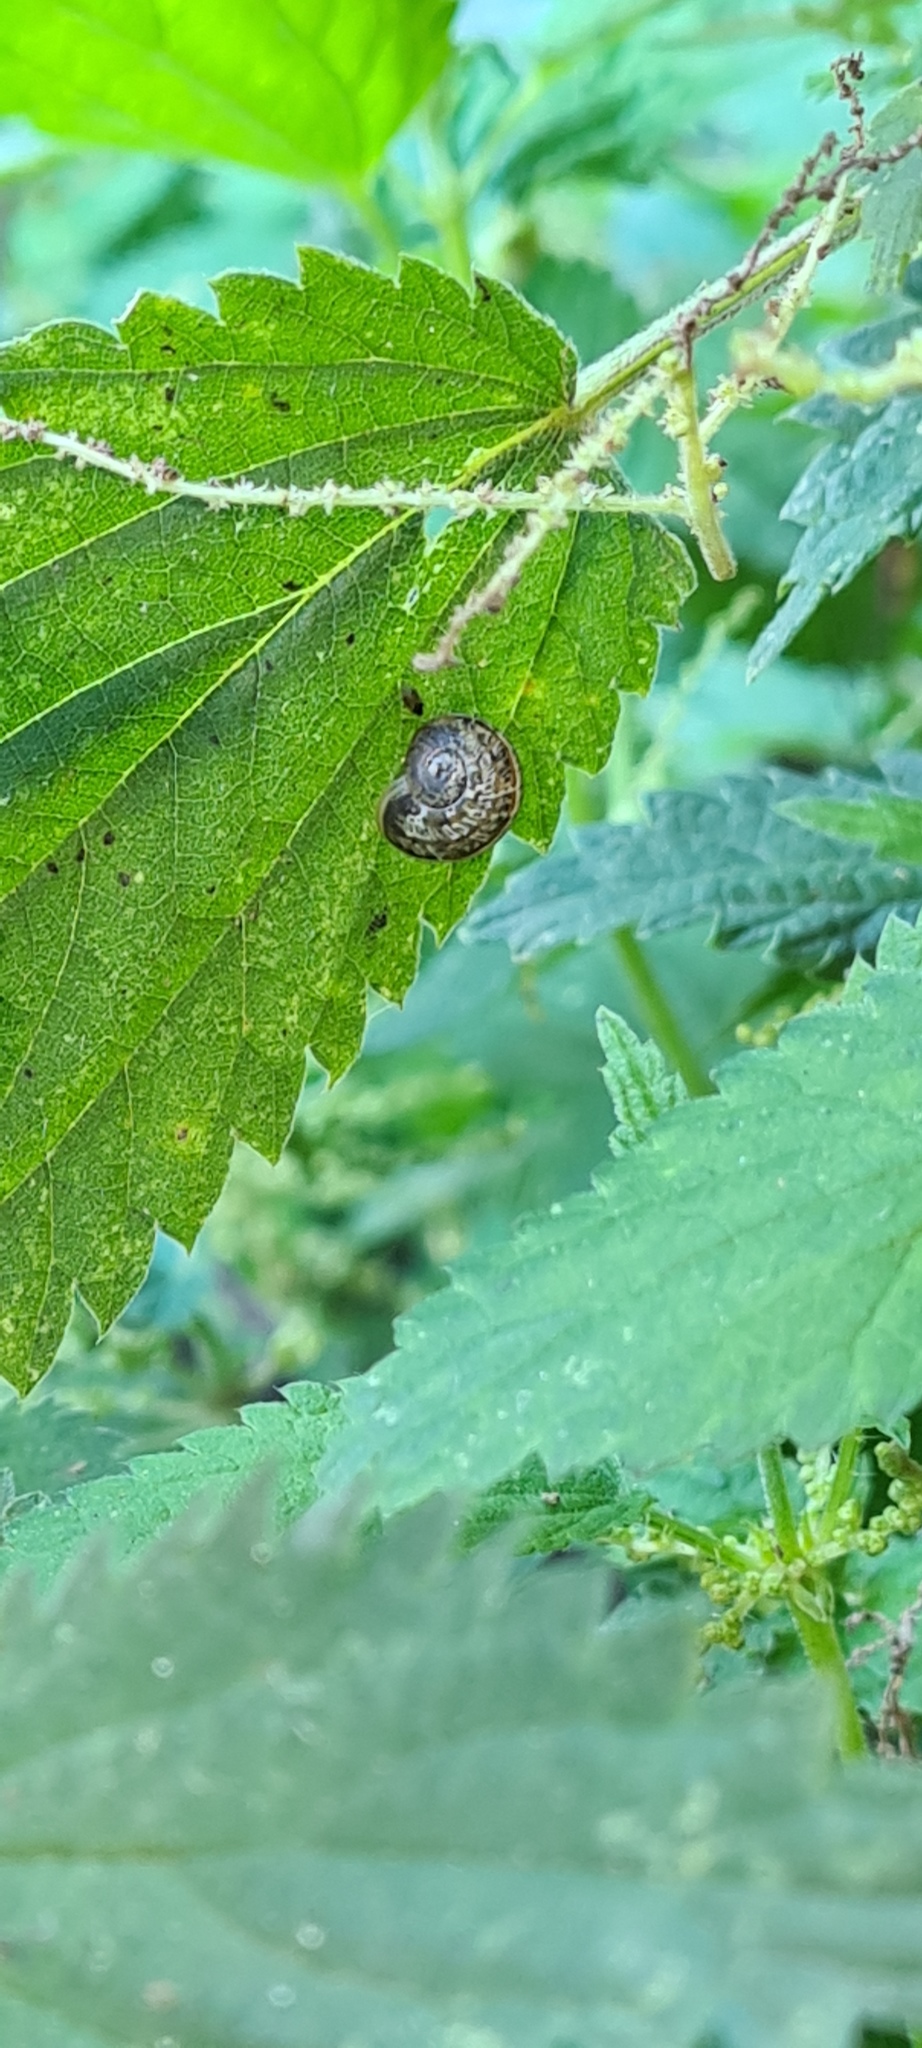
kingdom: Animalia
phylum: Mollusca
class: Gastropoda
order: Stylommatophora
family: Helicidae
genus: Cornu
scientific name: Cornu aspersum
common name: Brown garden snail
